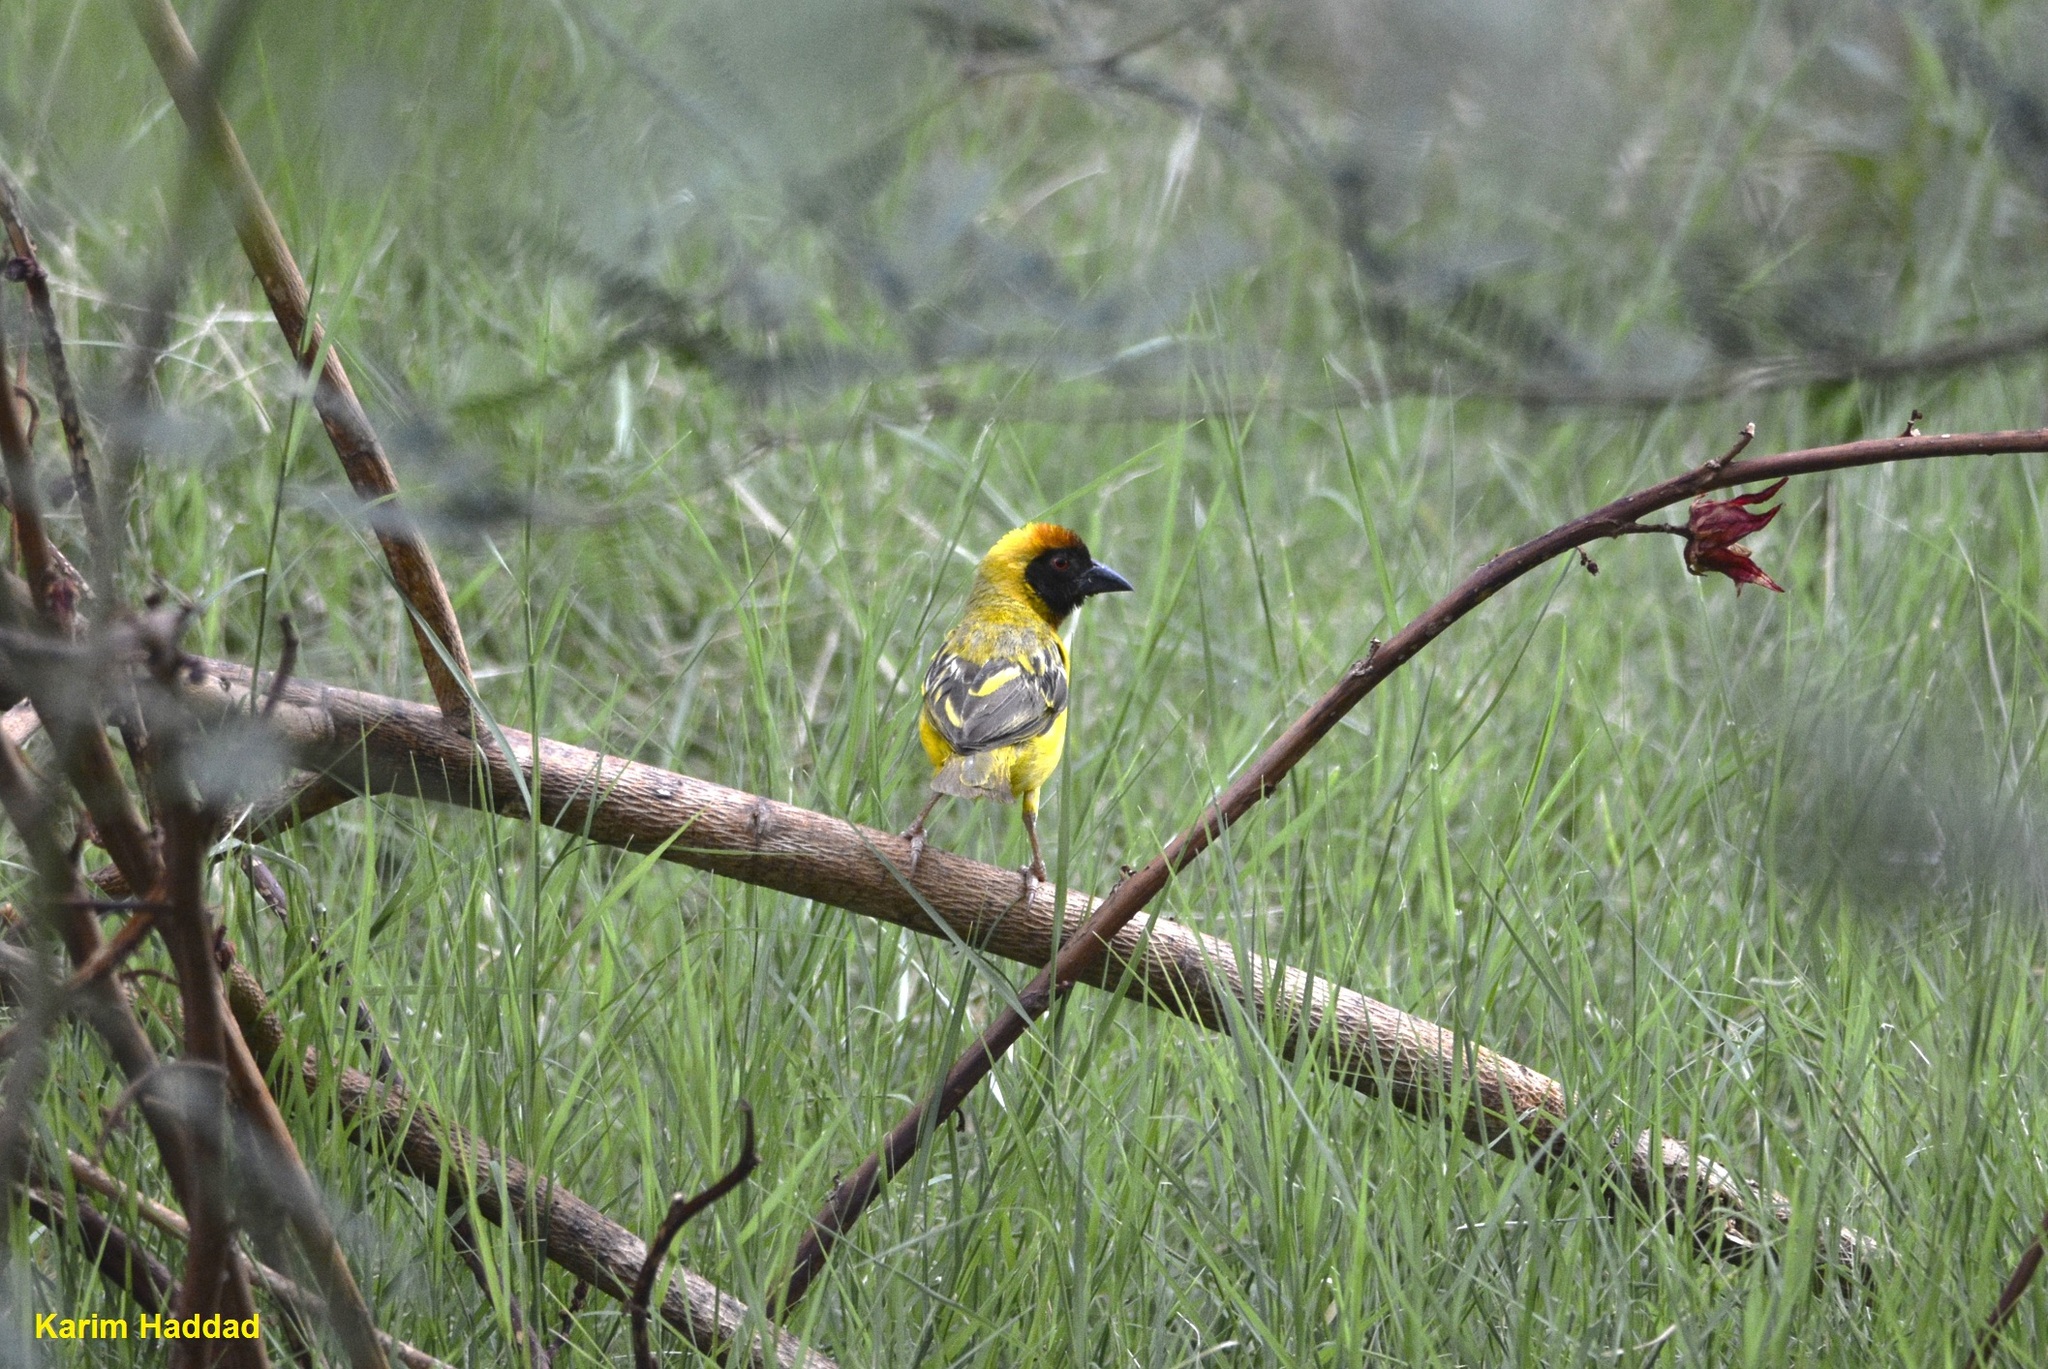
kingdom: Animalia
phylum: Chordata
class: Aves
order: Passeriformes
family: Ploceidae
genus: Ploceus
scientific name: Ploceus vitellinus
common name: Vitelline masked weaver
